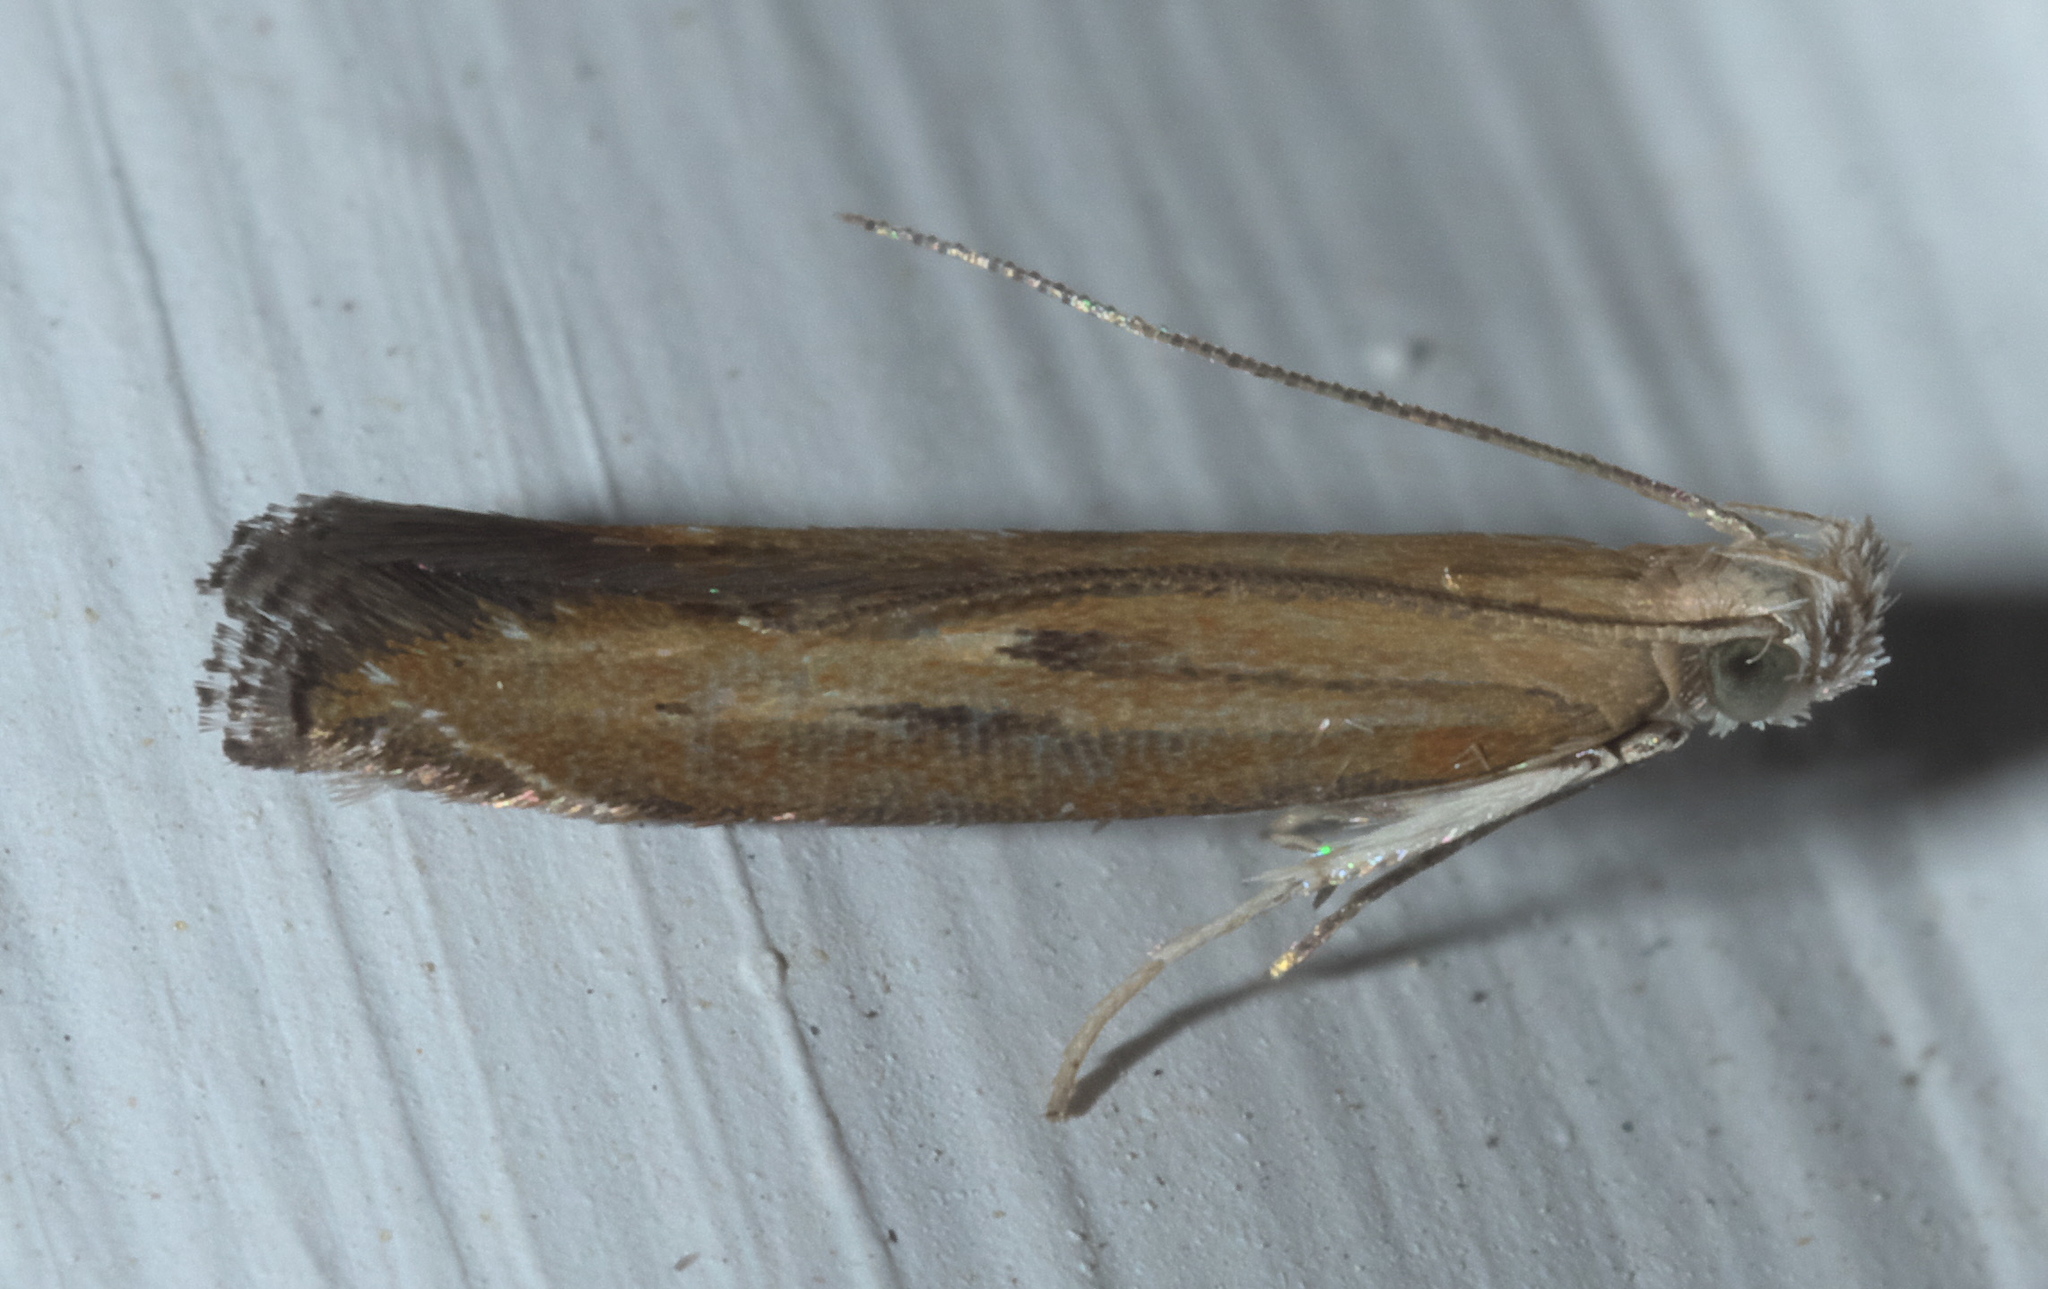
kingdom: Animalia
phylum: Arthropoda
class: Insecta
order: Lepidoptera
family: Gelechiidae
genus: Isophrictis
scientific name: Isophrictis anteliella
